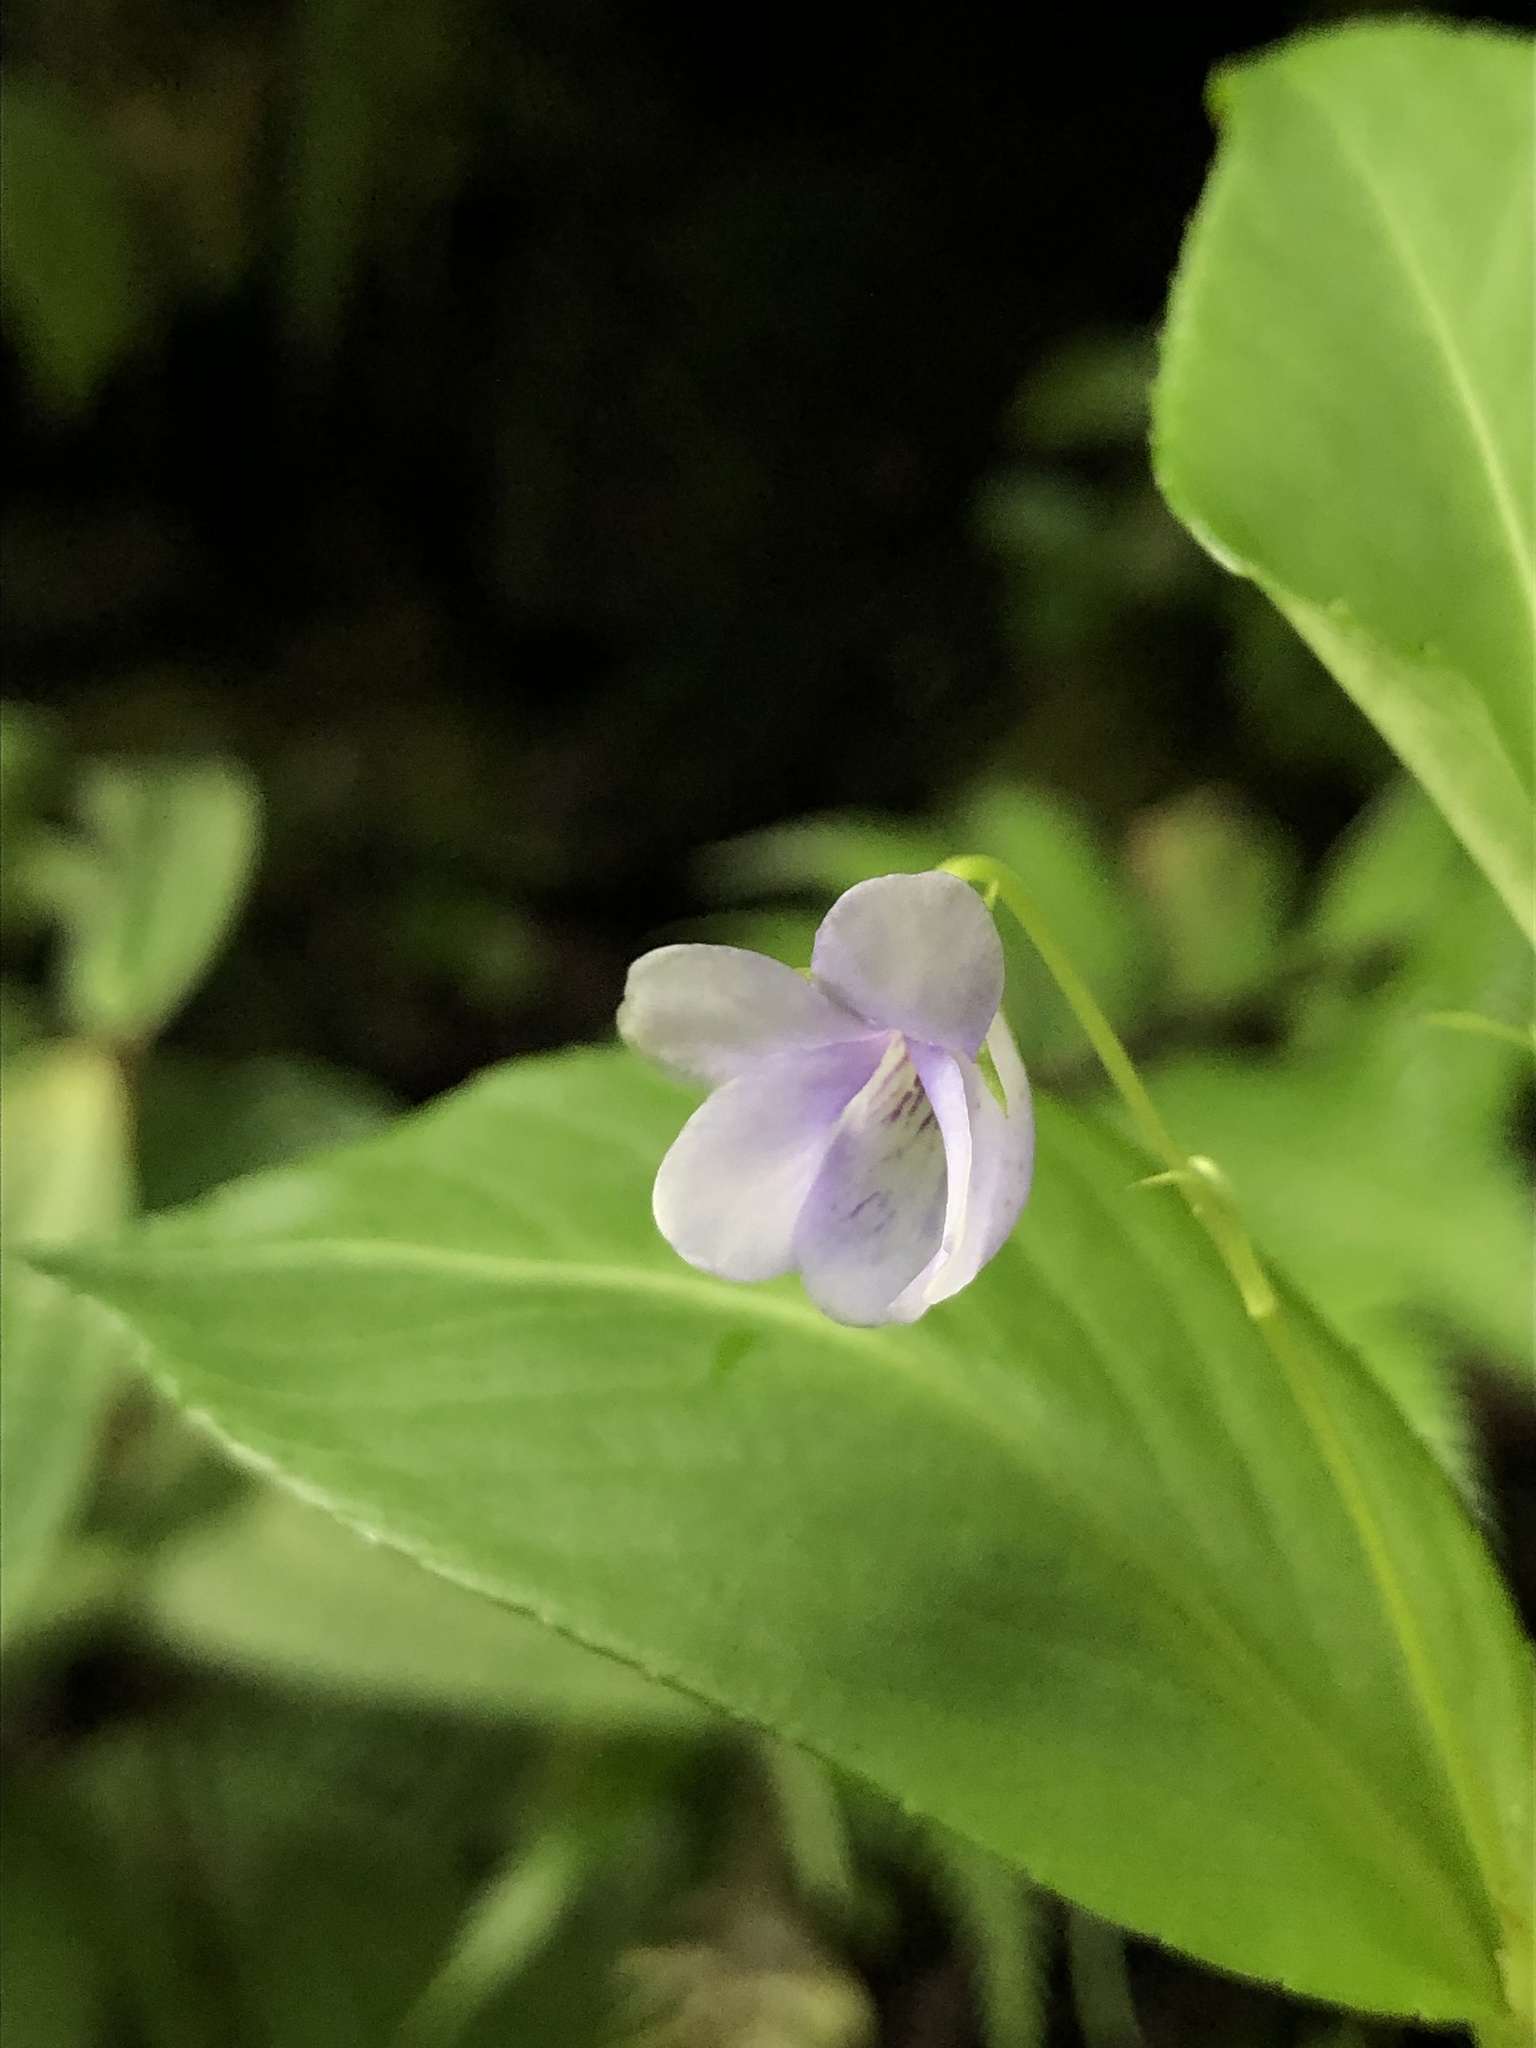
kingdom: Plantae
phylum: Tracheophyta
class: Magnoliopsida
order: Malpighiales
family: Violaceae
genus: Viola
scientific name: Viola stipularis
